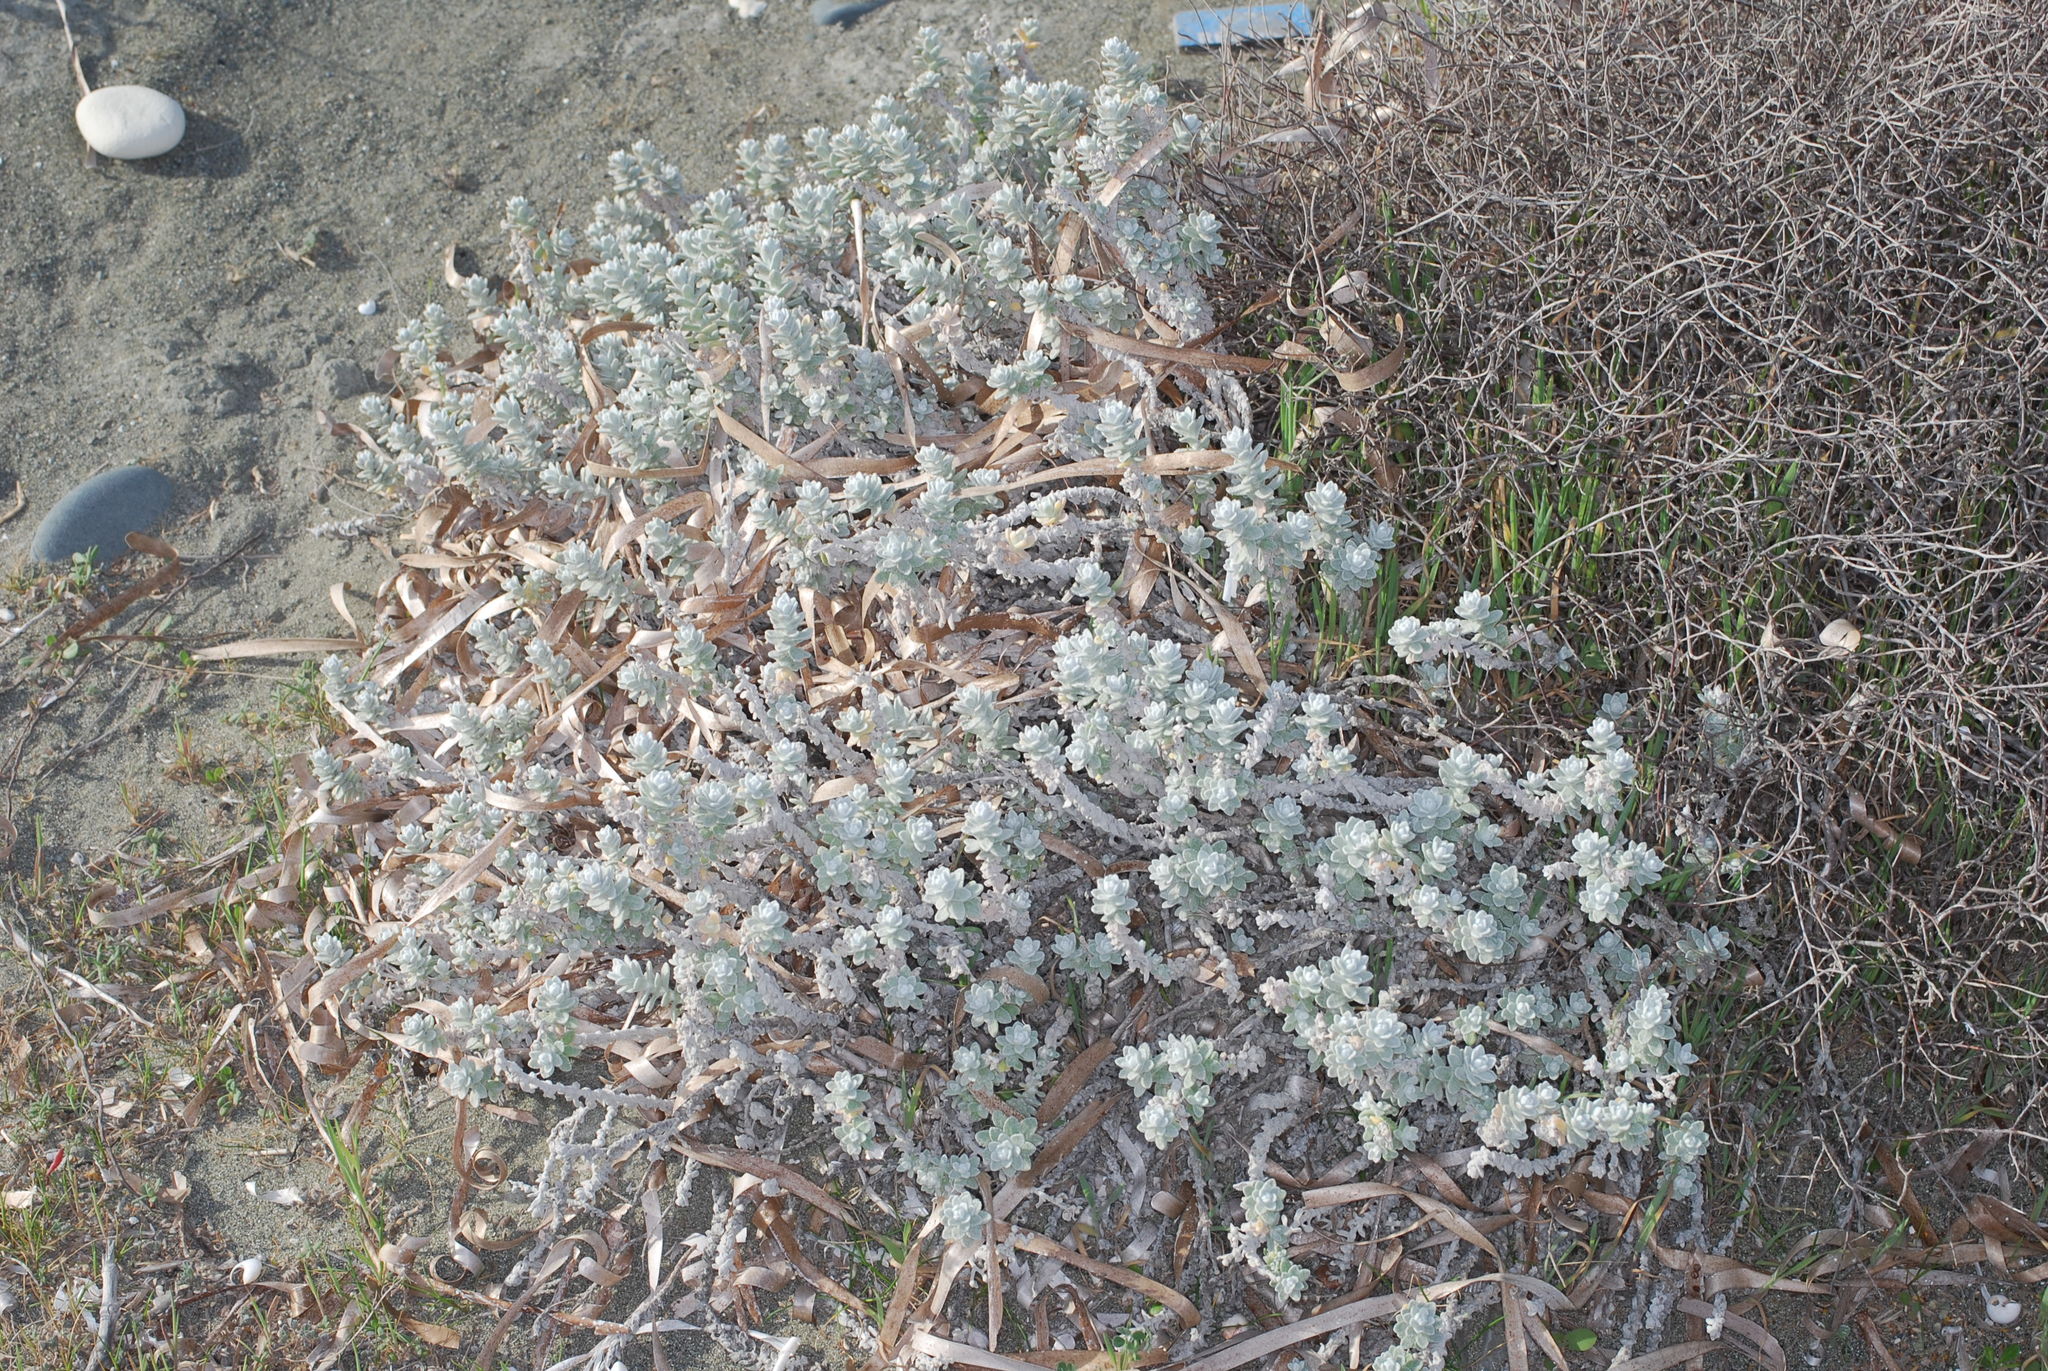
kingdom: Plantae
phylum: Tracheophyta
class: Magnoliopsida
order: Asterales
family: Asteraceae
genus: Achillea
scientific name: Achillea maritima
